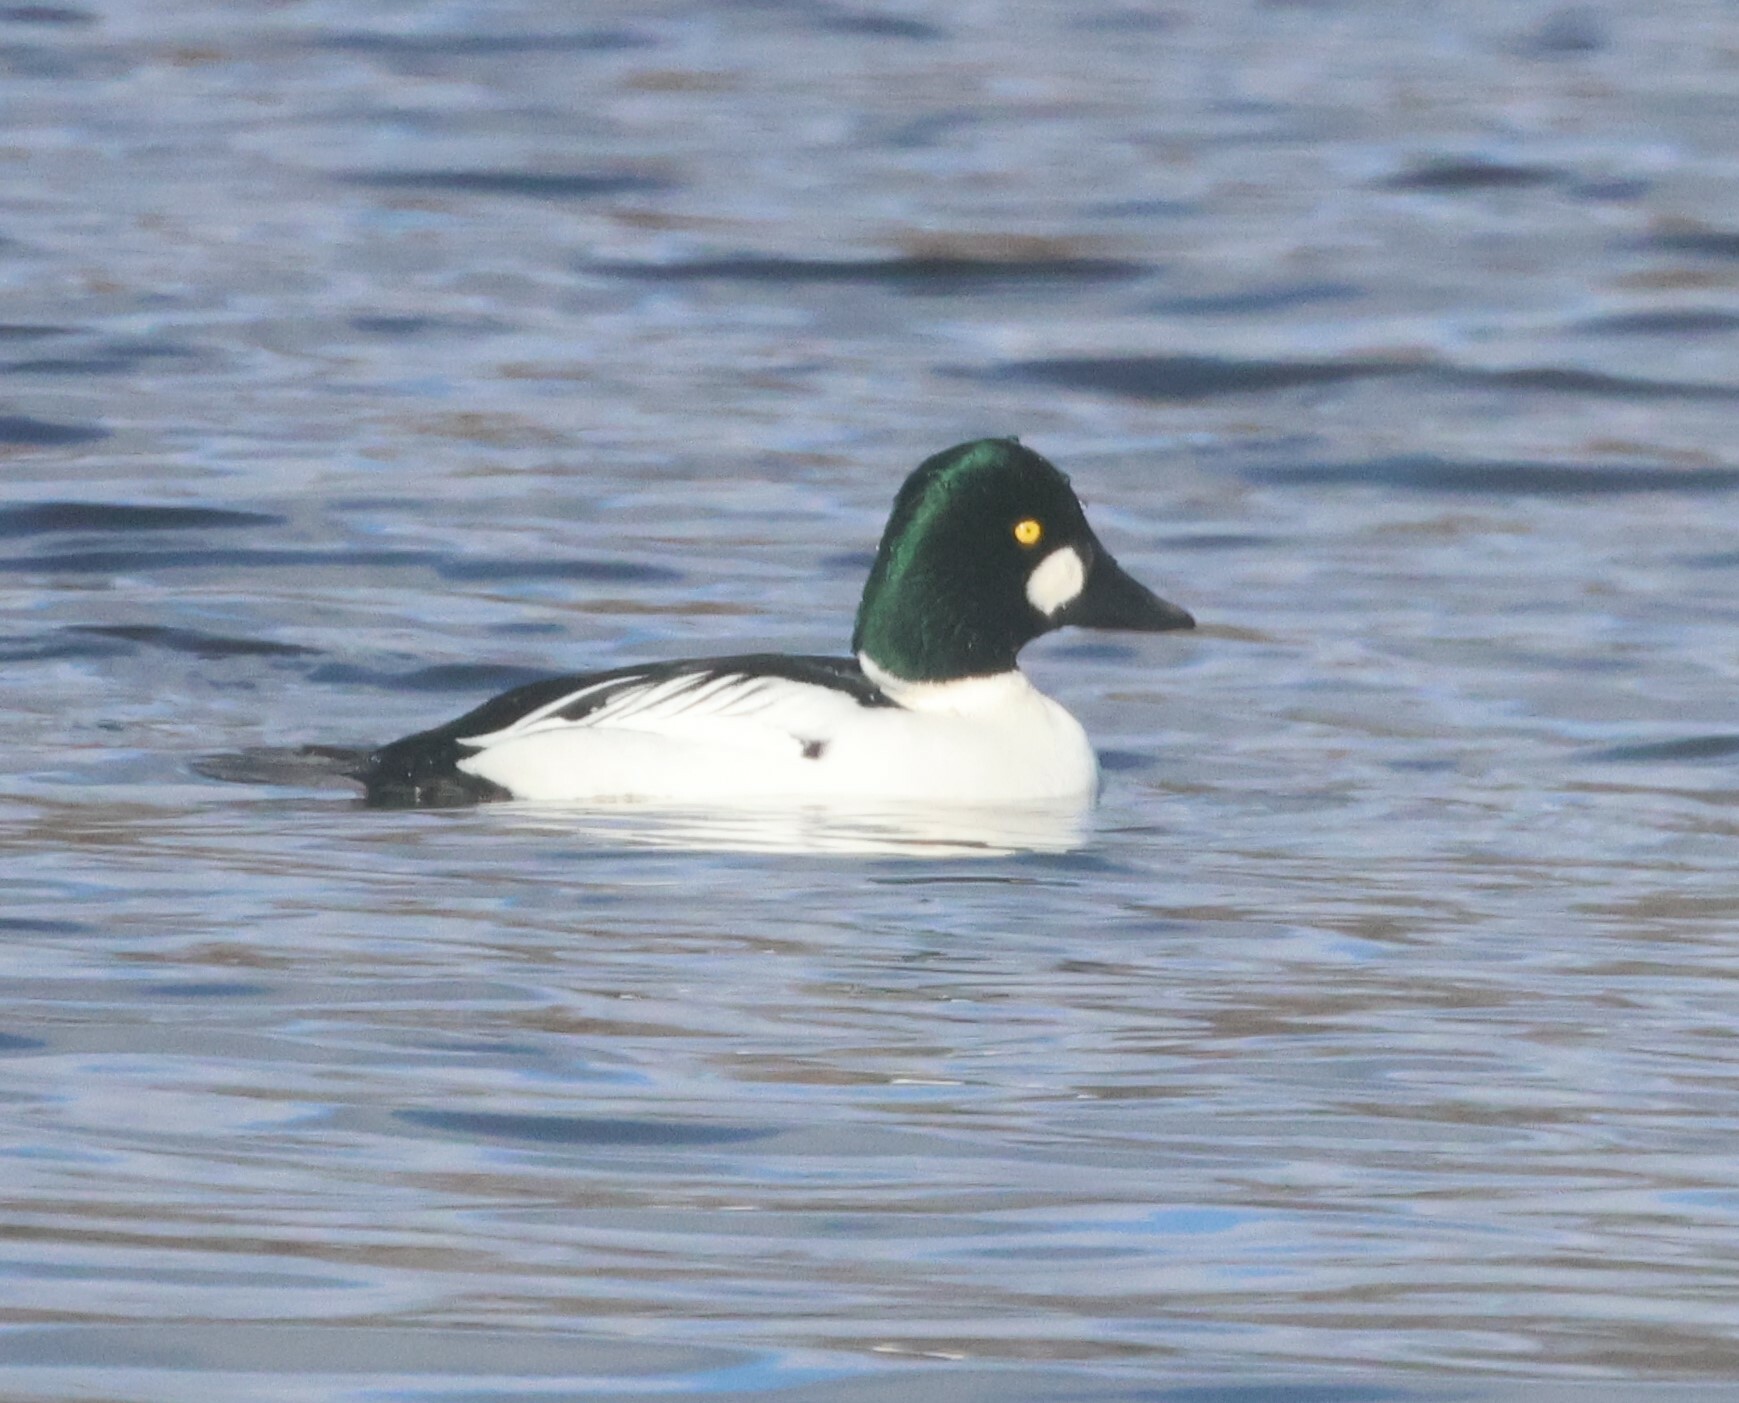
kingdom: Animalia
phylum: Chordata
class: Aves
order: Anseriformes
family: Anatidae
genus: Bucephala
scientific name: Bucephala clangula
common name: Common goldeneye
